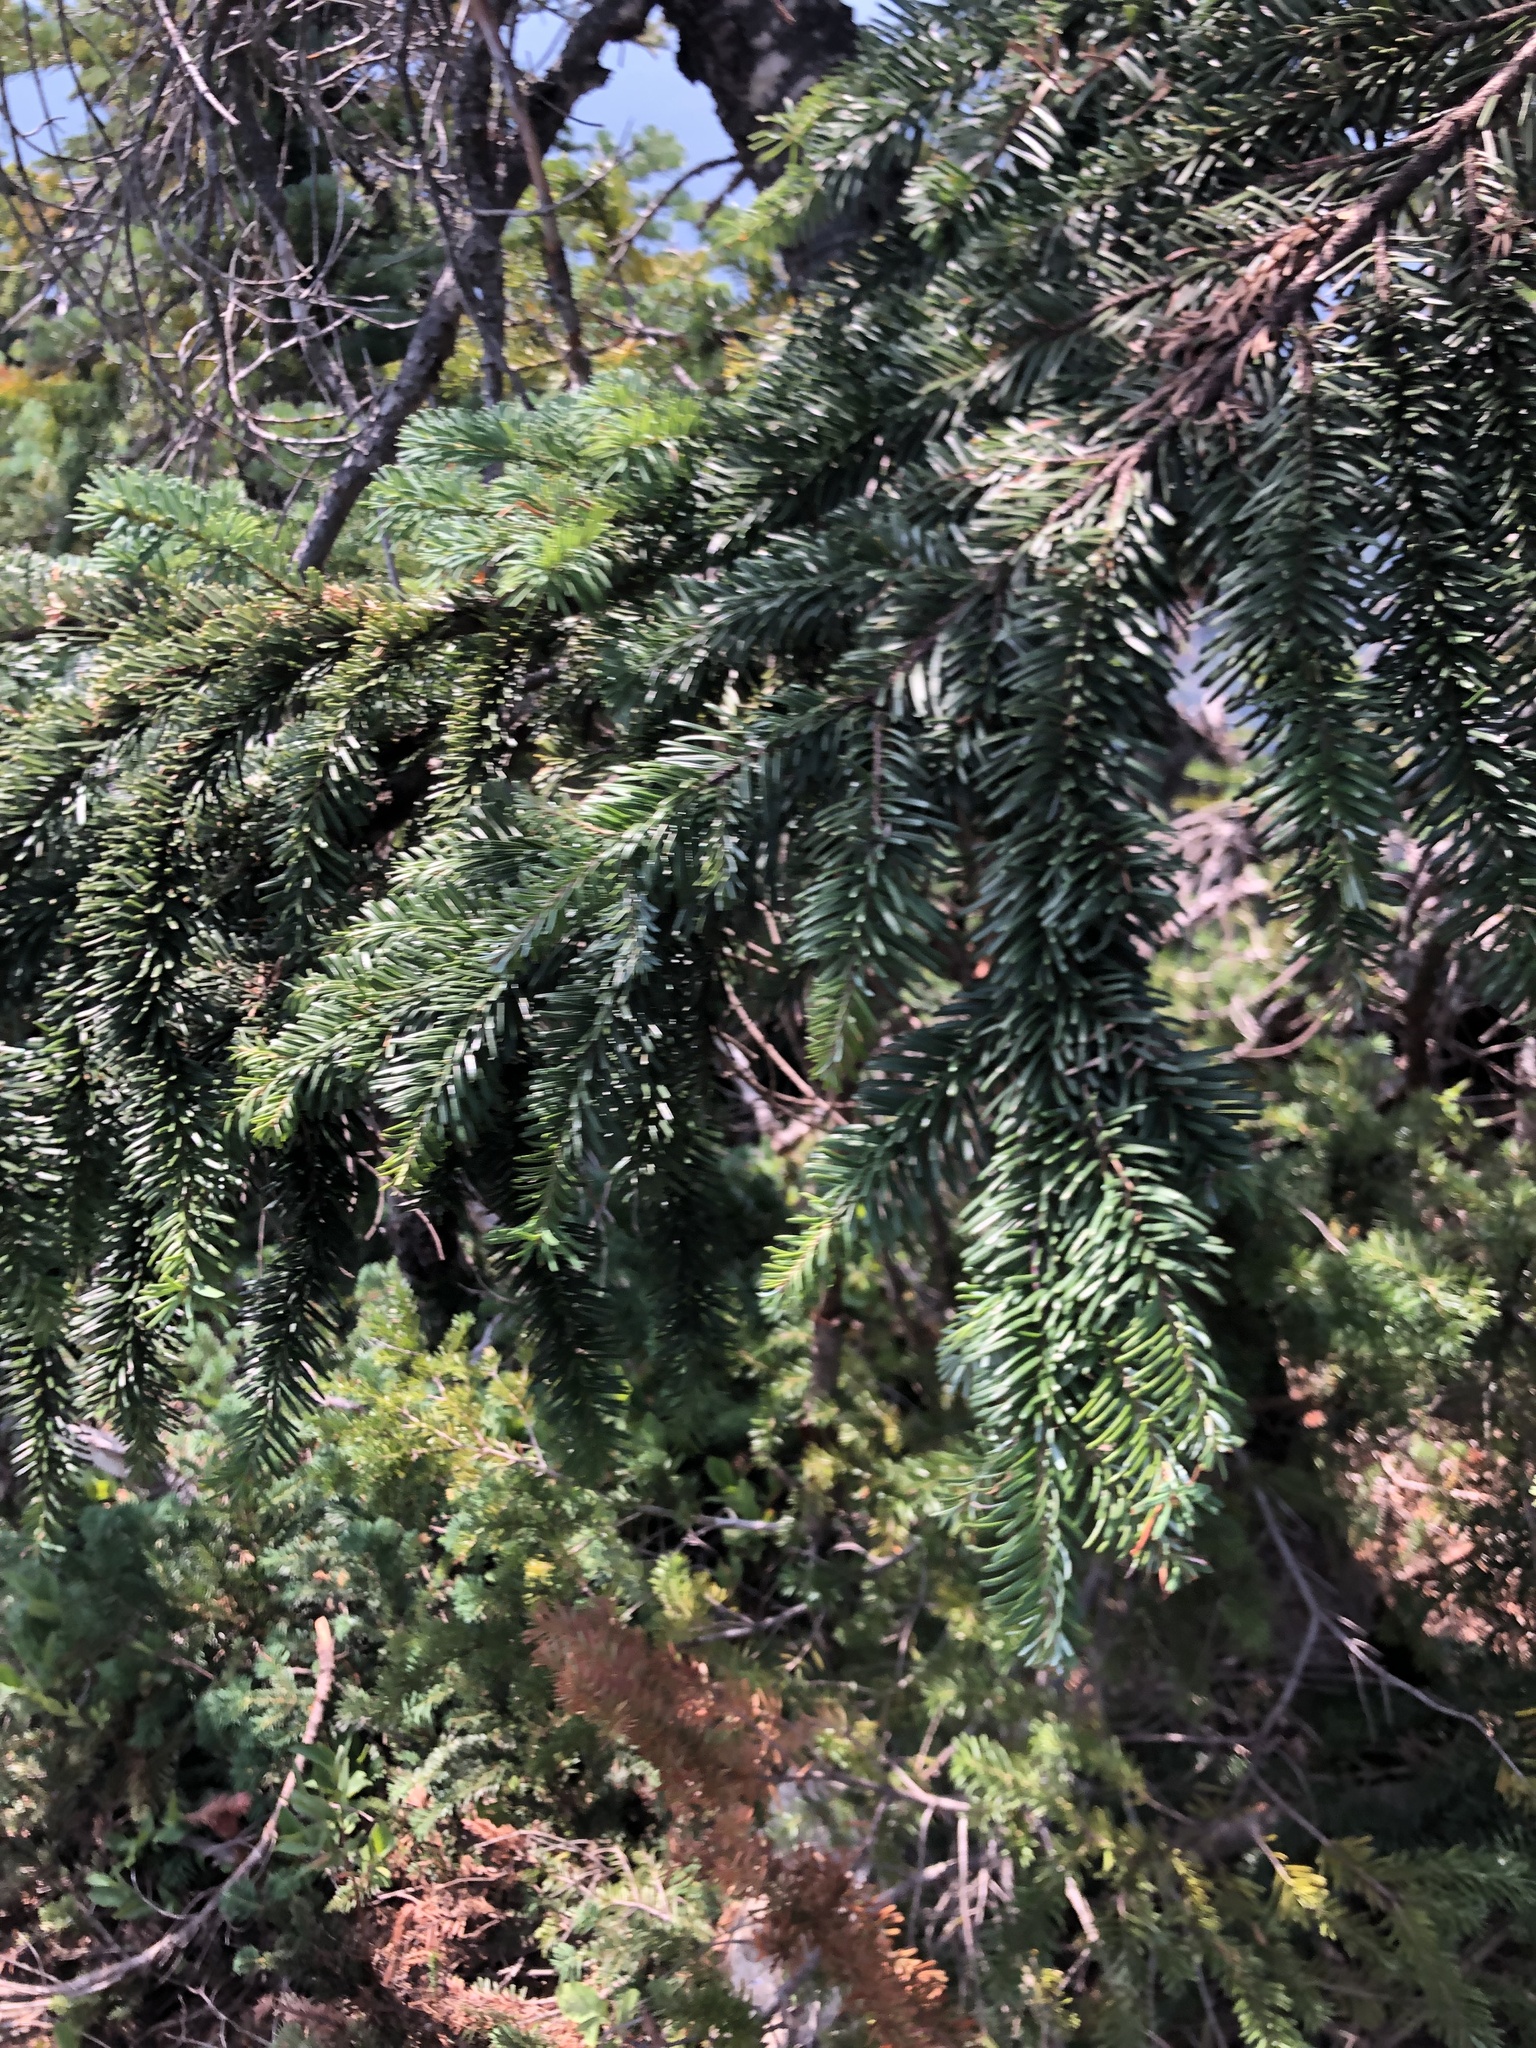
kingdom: Plantae
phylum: Tracheophyta
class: Pinopsida
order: Pinales
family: Pinaceae
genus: Abies
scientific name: Abies amabilis
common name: Pacific silver fir
